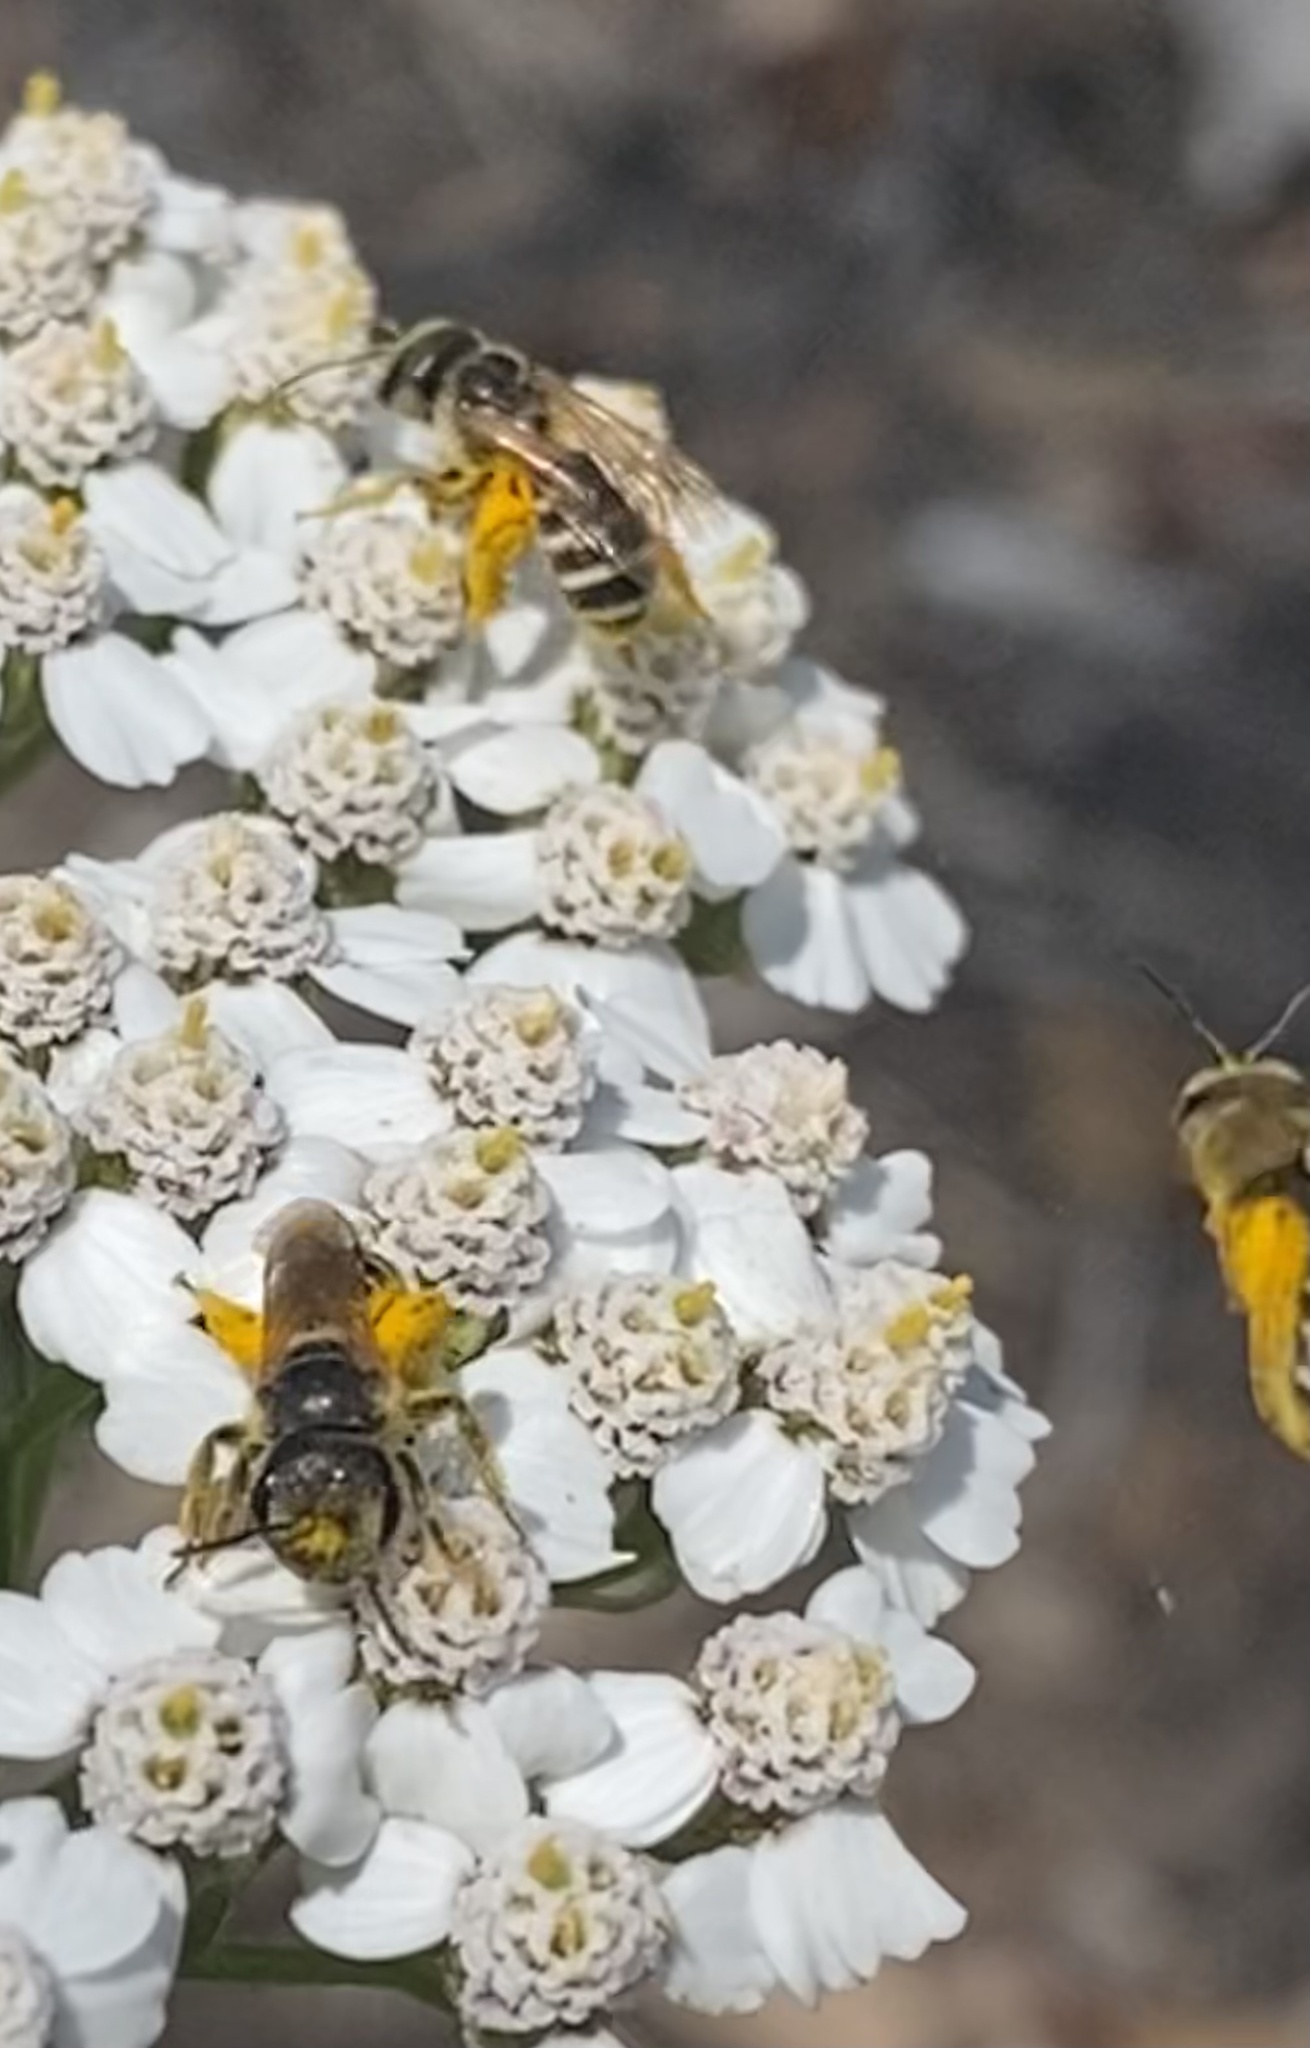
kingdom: Animalia
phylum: Arthropoda
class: Insecta
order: Hymenoptera
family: Halictidae
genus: Halictus
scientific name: Halictus ligatus
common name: Ligated furrow bee
